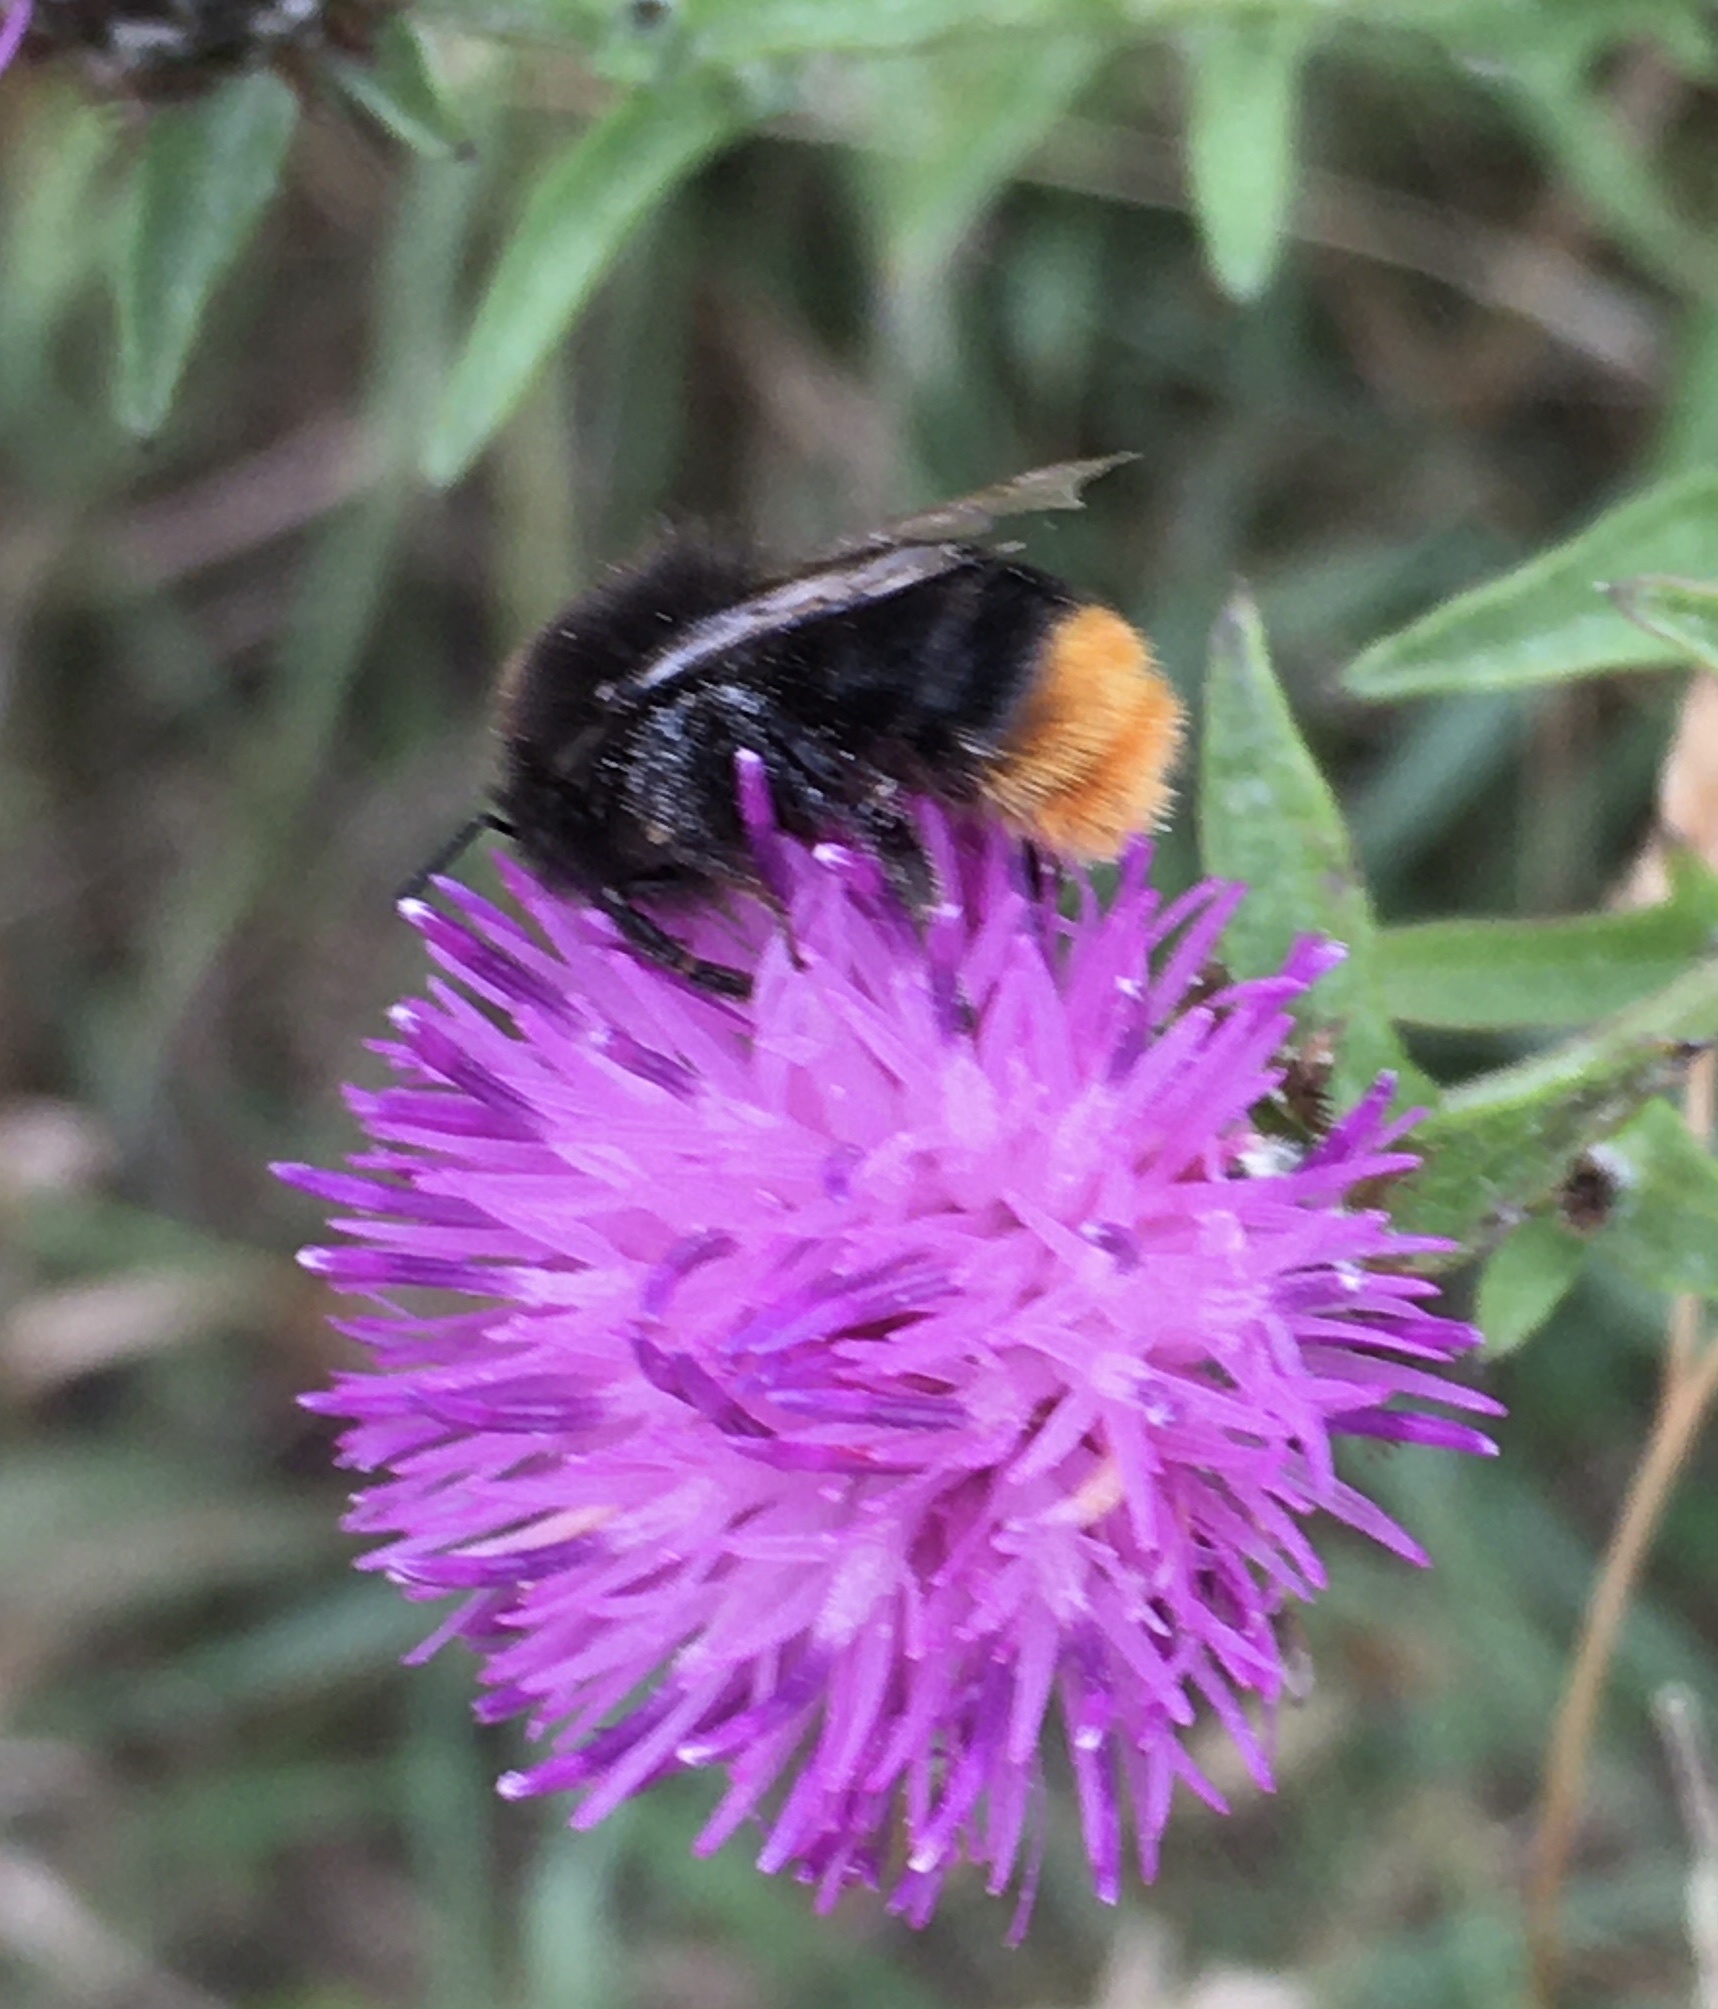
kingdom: Animalia
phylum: Arthropoda
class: Insecta
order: Hymenoptera
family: Apidae
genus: Bombus
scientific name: Bombus lapidarius
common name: Large red-tailed humble-bee
